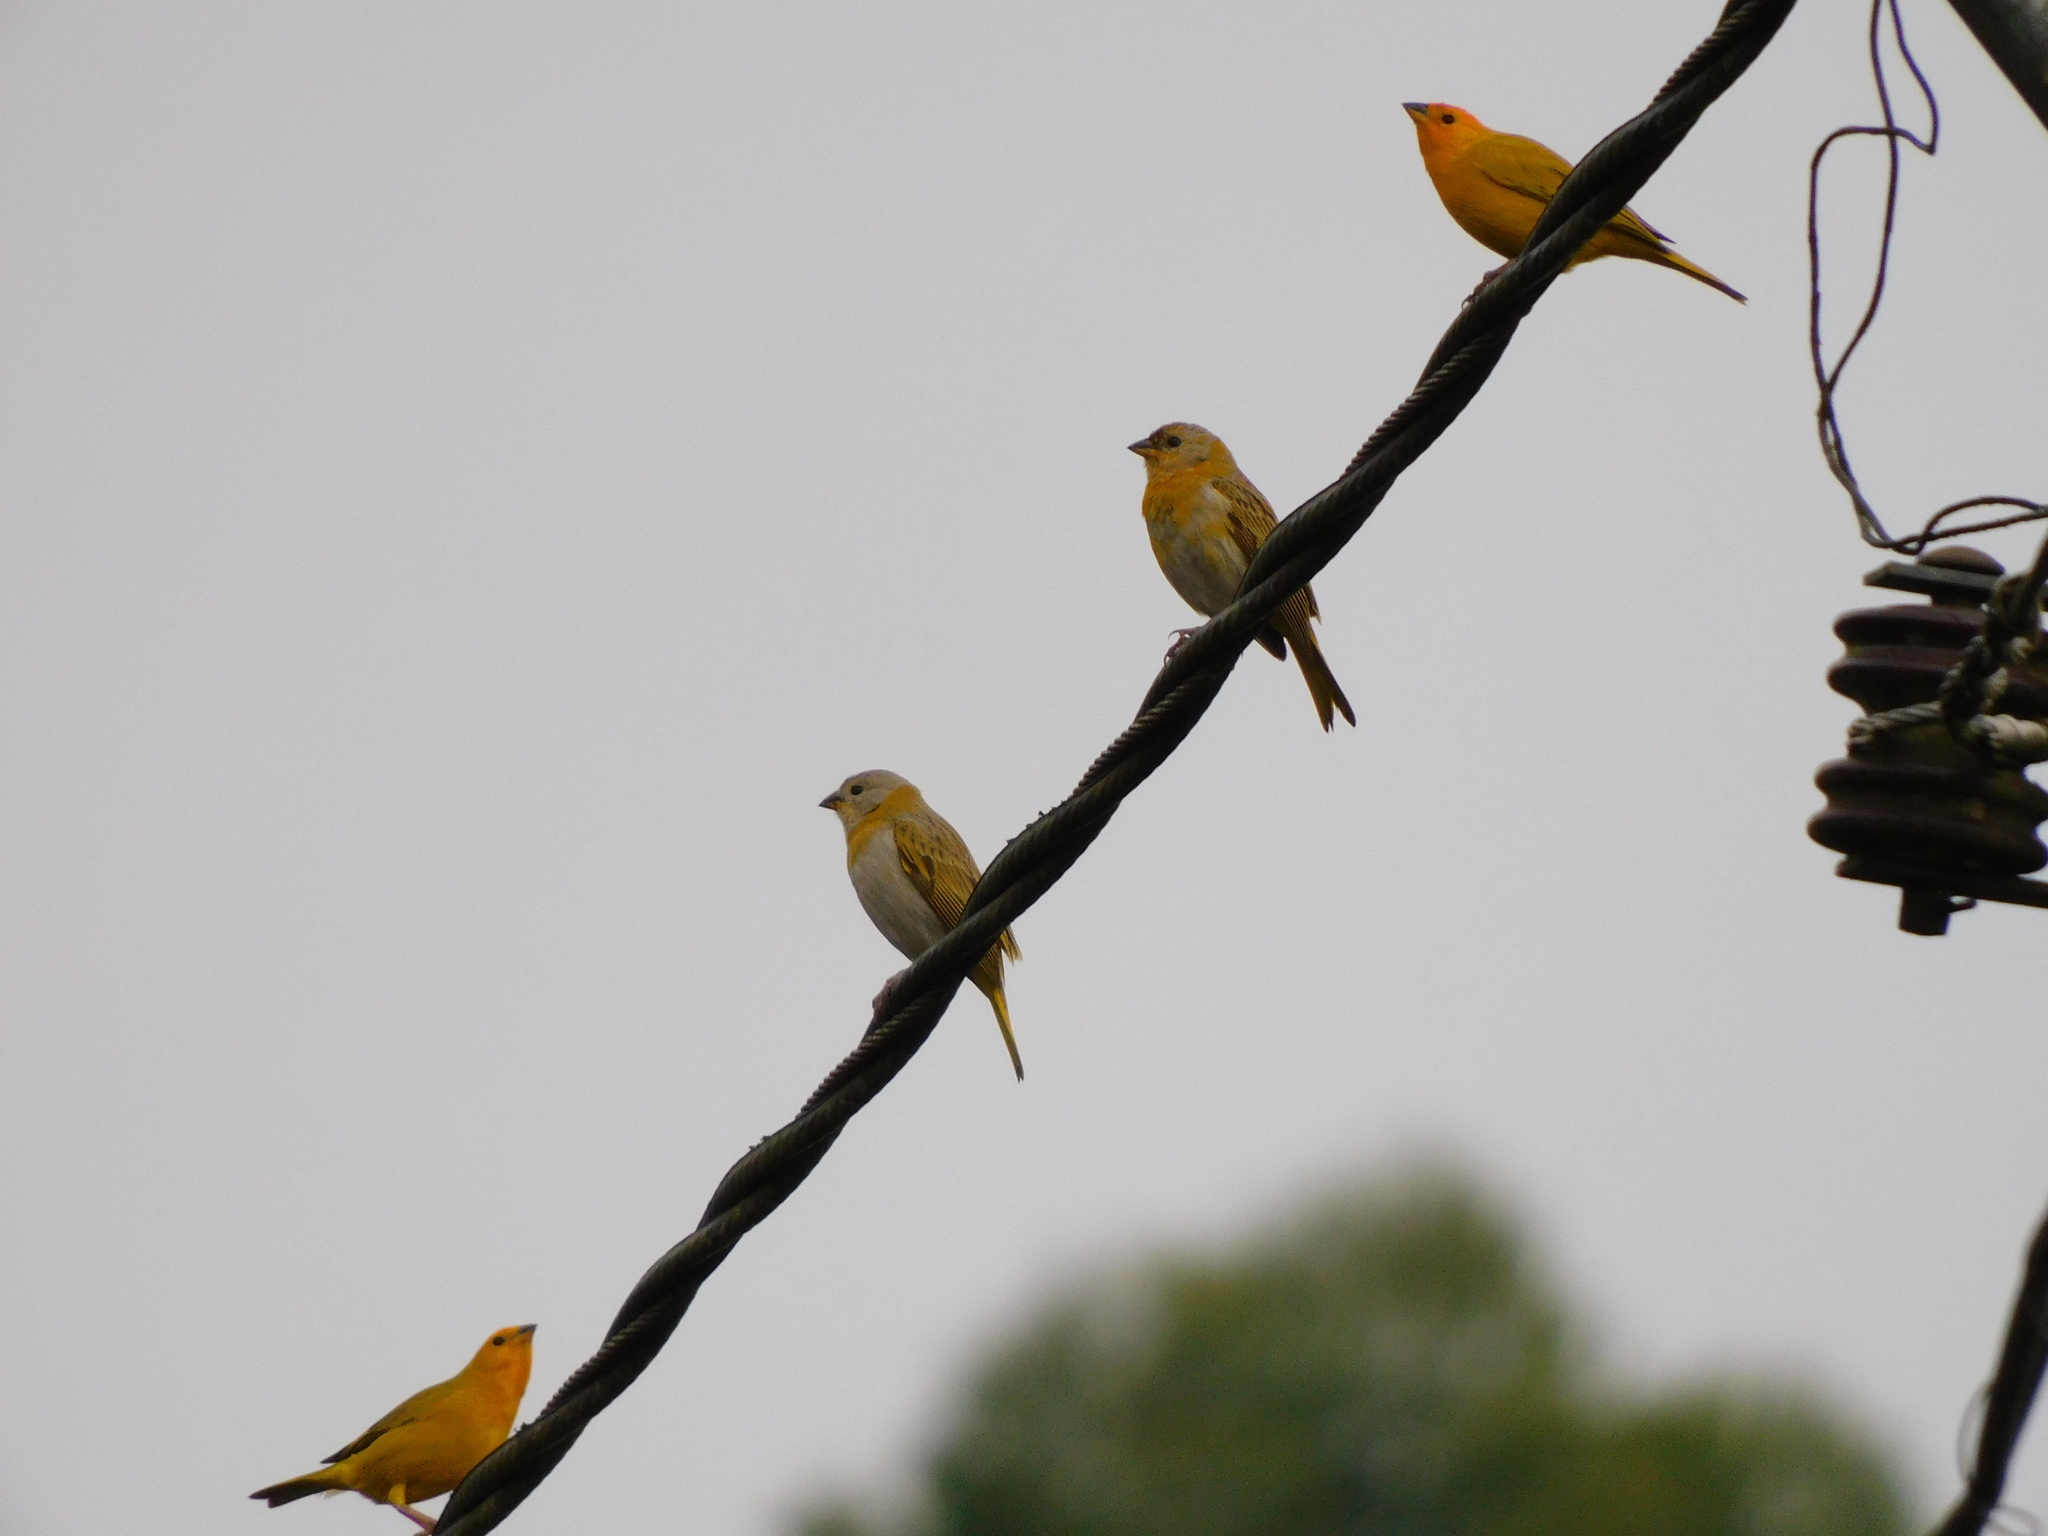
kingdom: Animalia
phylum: Chordata
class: Aves
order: Passeriformes
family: Thraupidae
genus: Sicalis
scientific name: Sicalis flaveola
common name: Saffron finch
